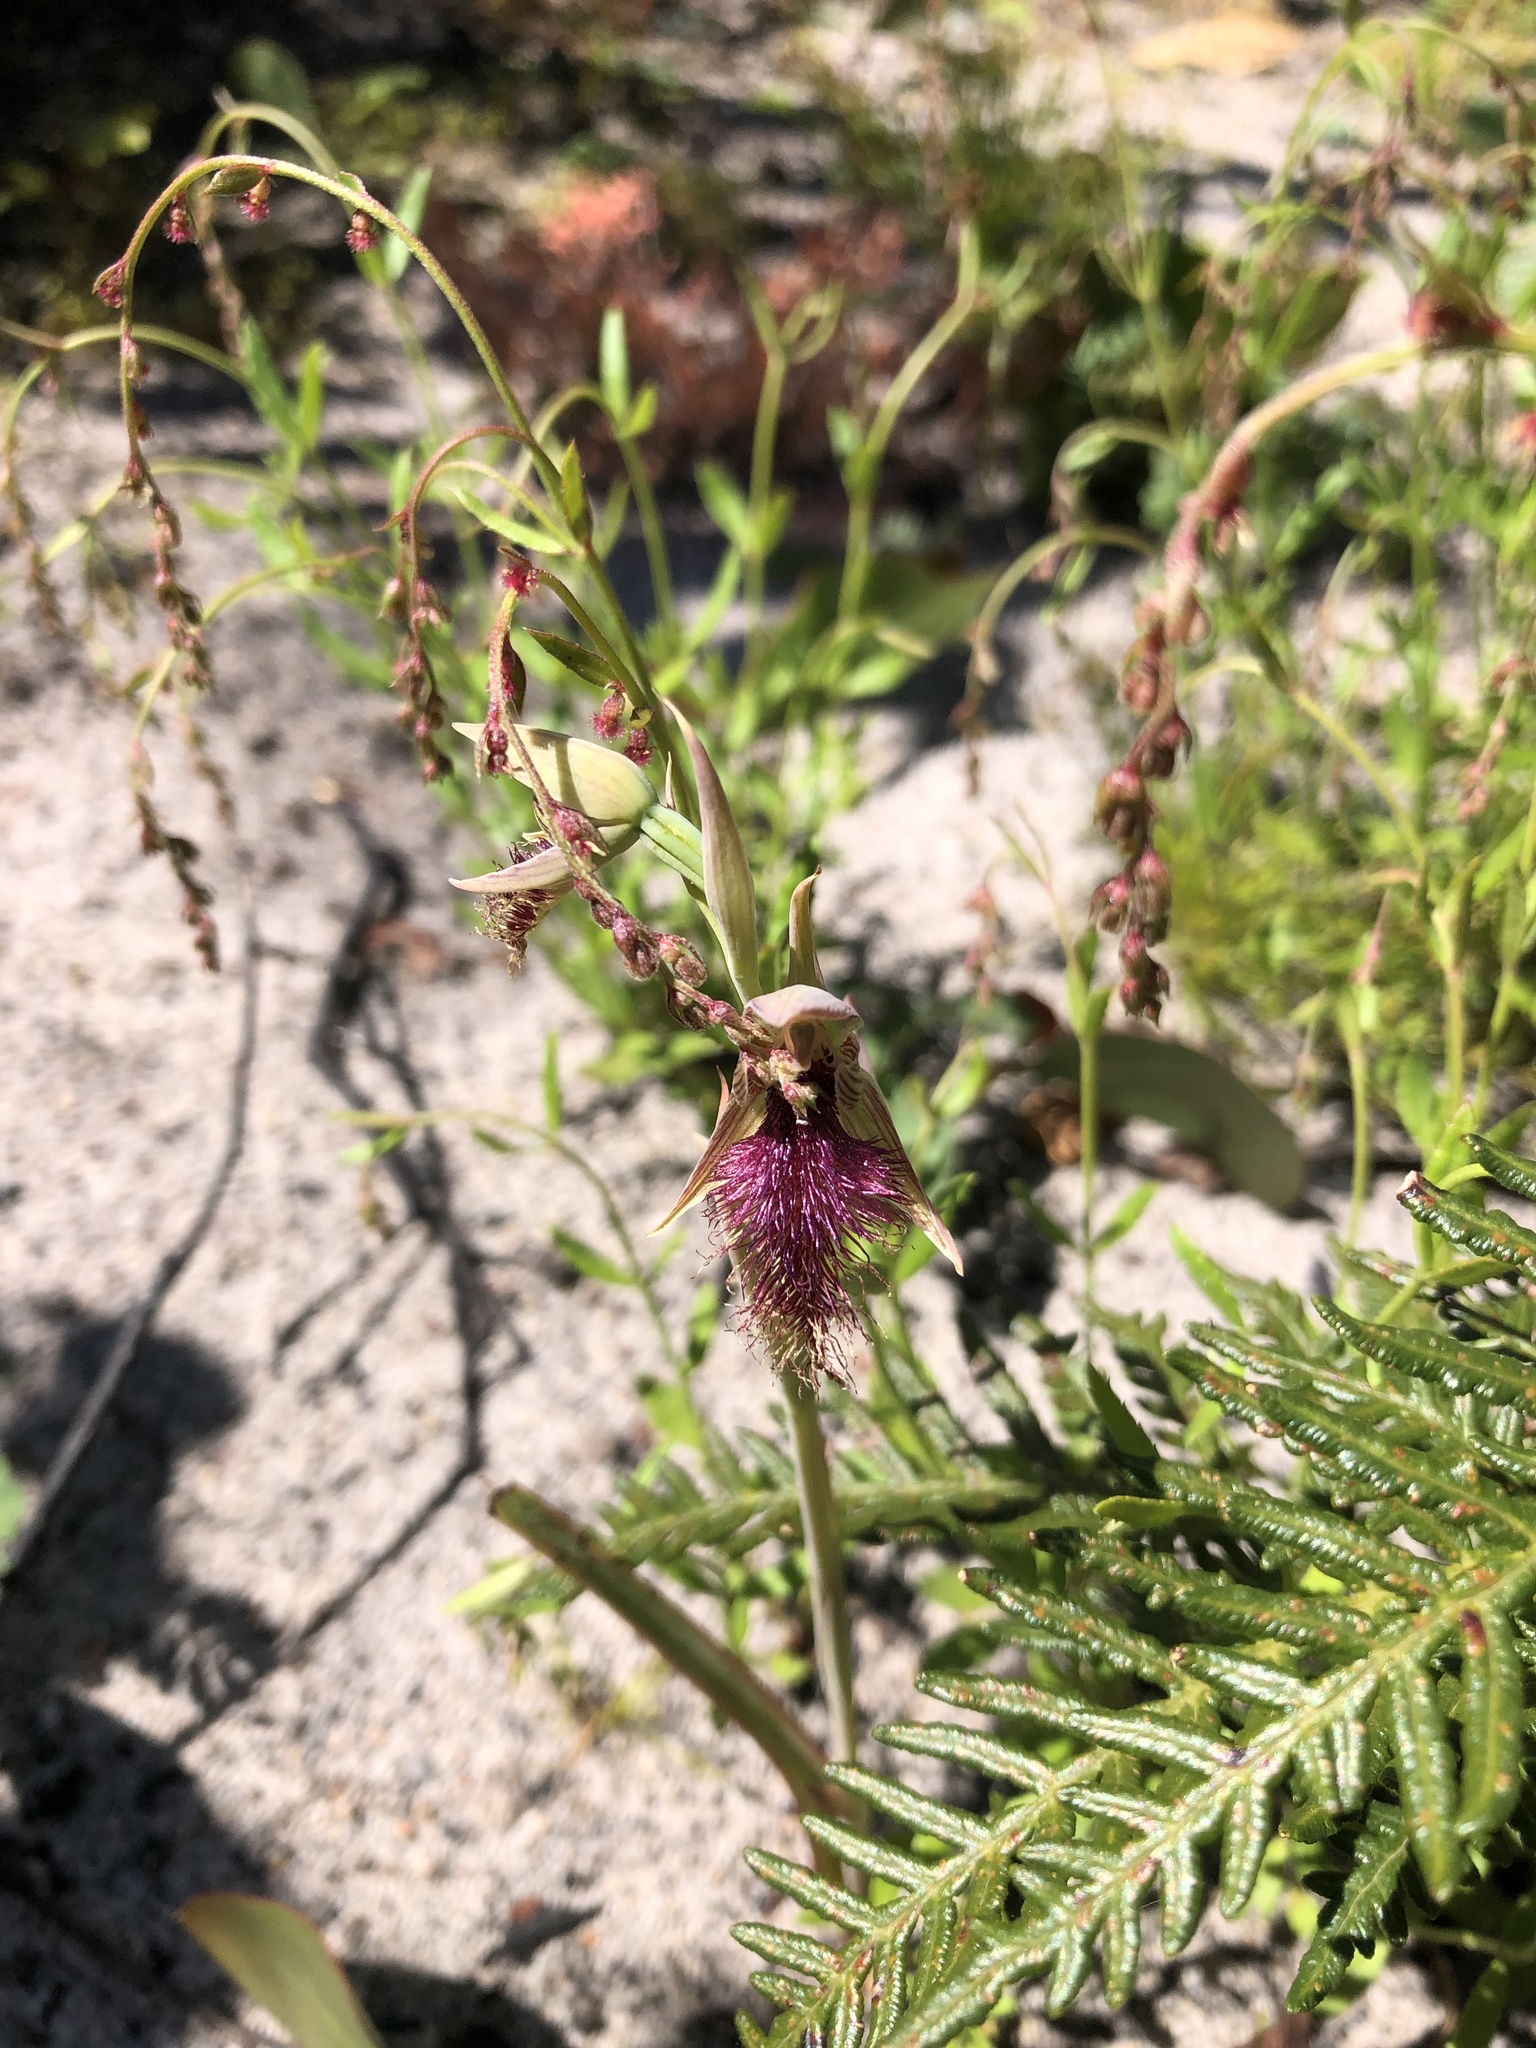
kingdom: Plantae
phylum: Tracheophyta
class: Liliopsida
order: Asparagales
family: Orchidaceae
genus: Calochilus
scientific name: Calochilus robertsonii
